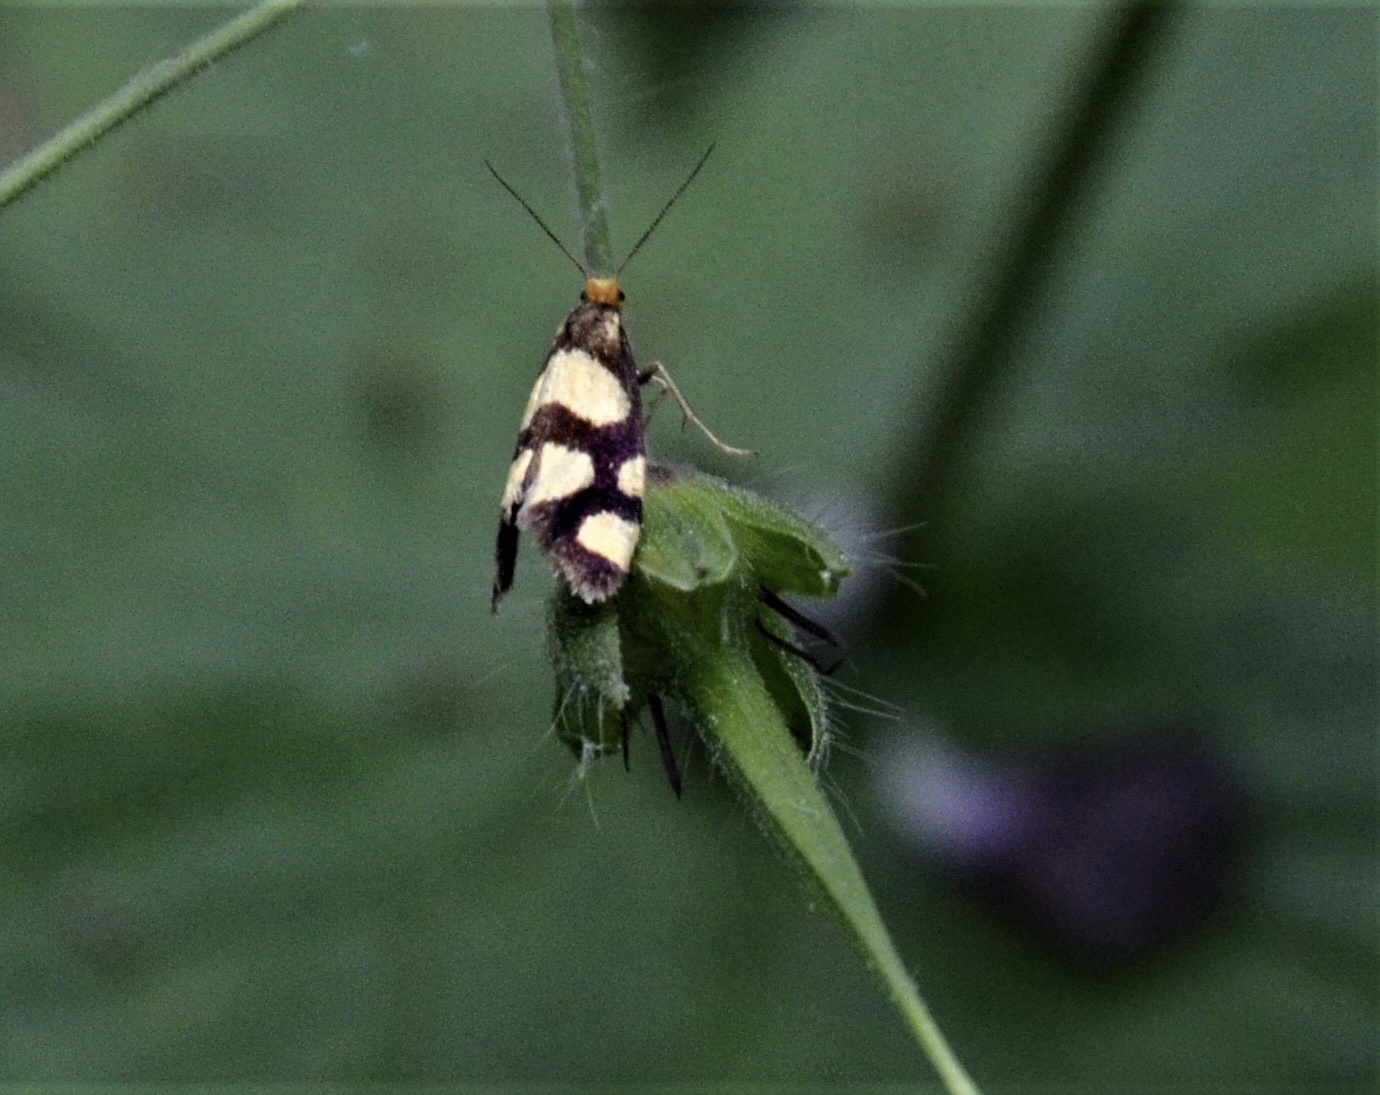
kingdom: Animalia
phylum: Arthropoda
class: Insecta
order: Lepidoptera
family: Incurvariidae
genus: Incurvaria
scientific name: Incurvaria rupella
